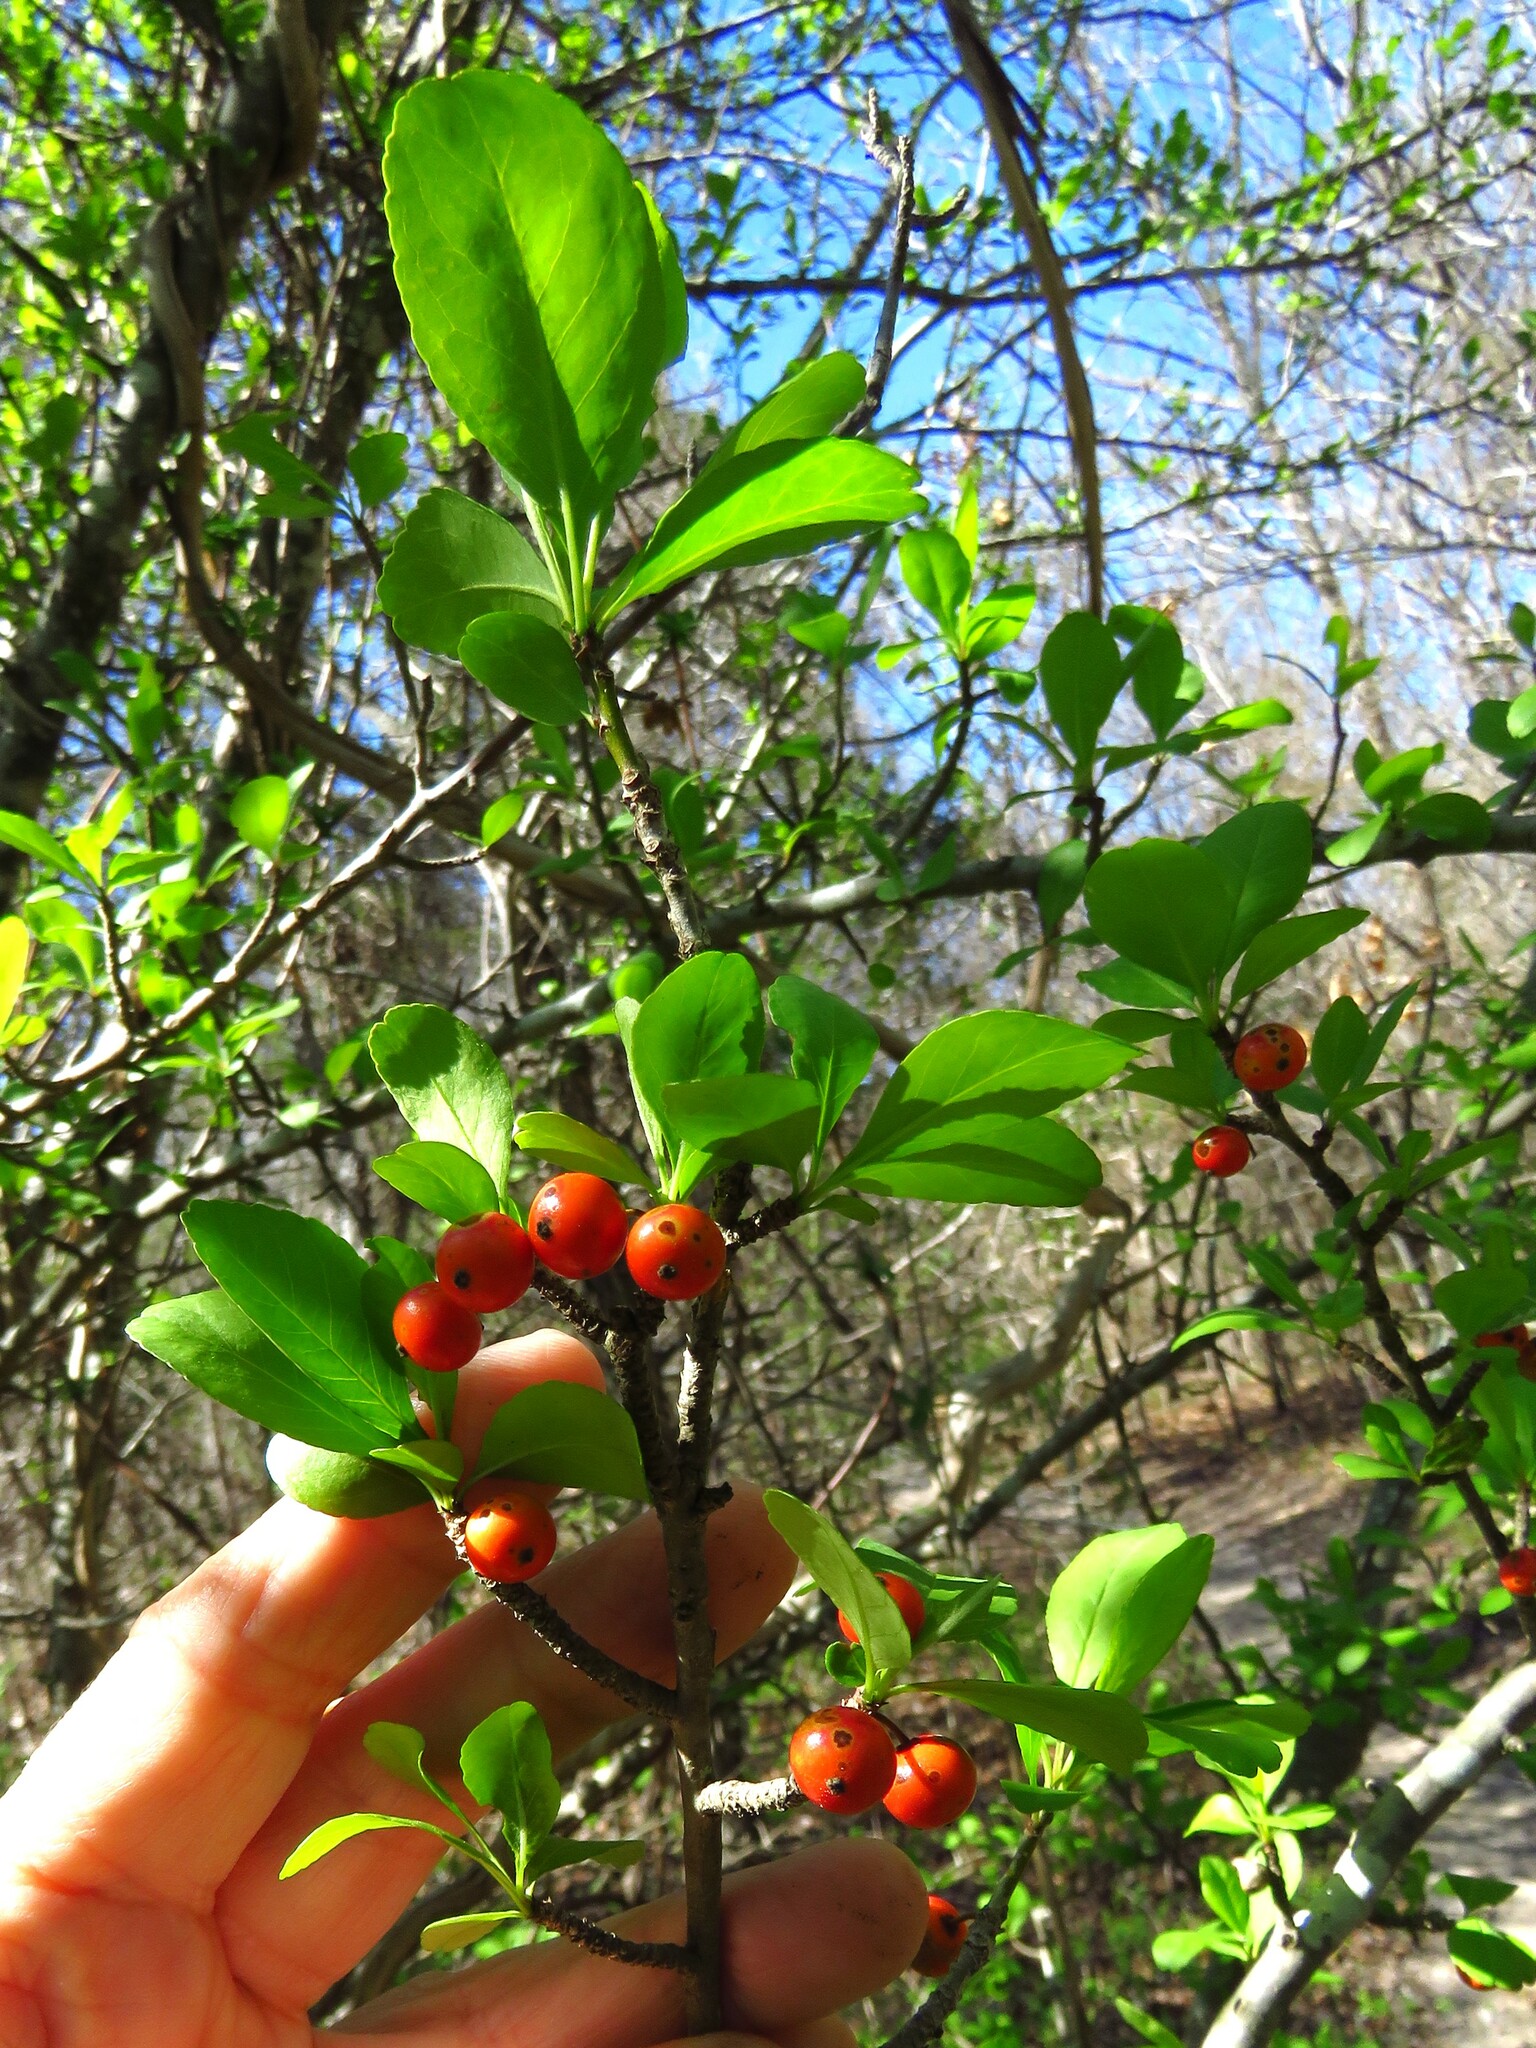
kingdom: Plantae
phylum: Tracheophyta
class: Magnoliopsida
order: Aquifoliales
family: Aquifoliaceae
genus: Ilex
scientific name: Ilex decidua
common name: Possum-haw
